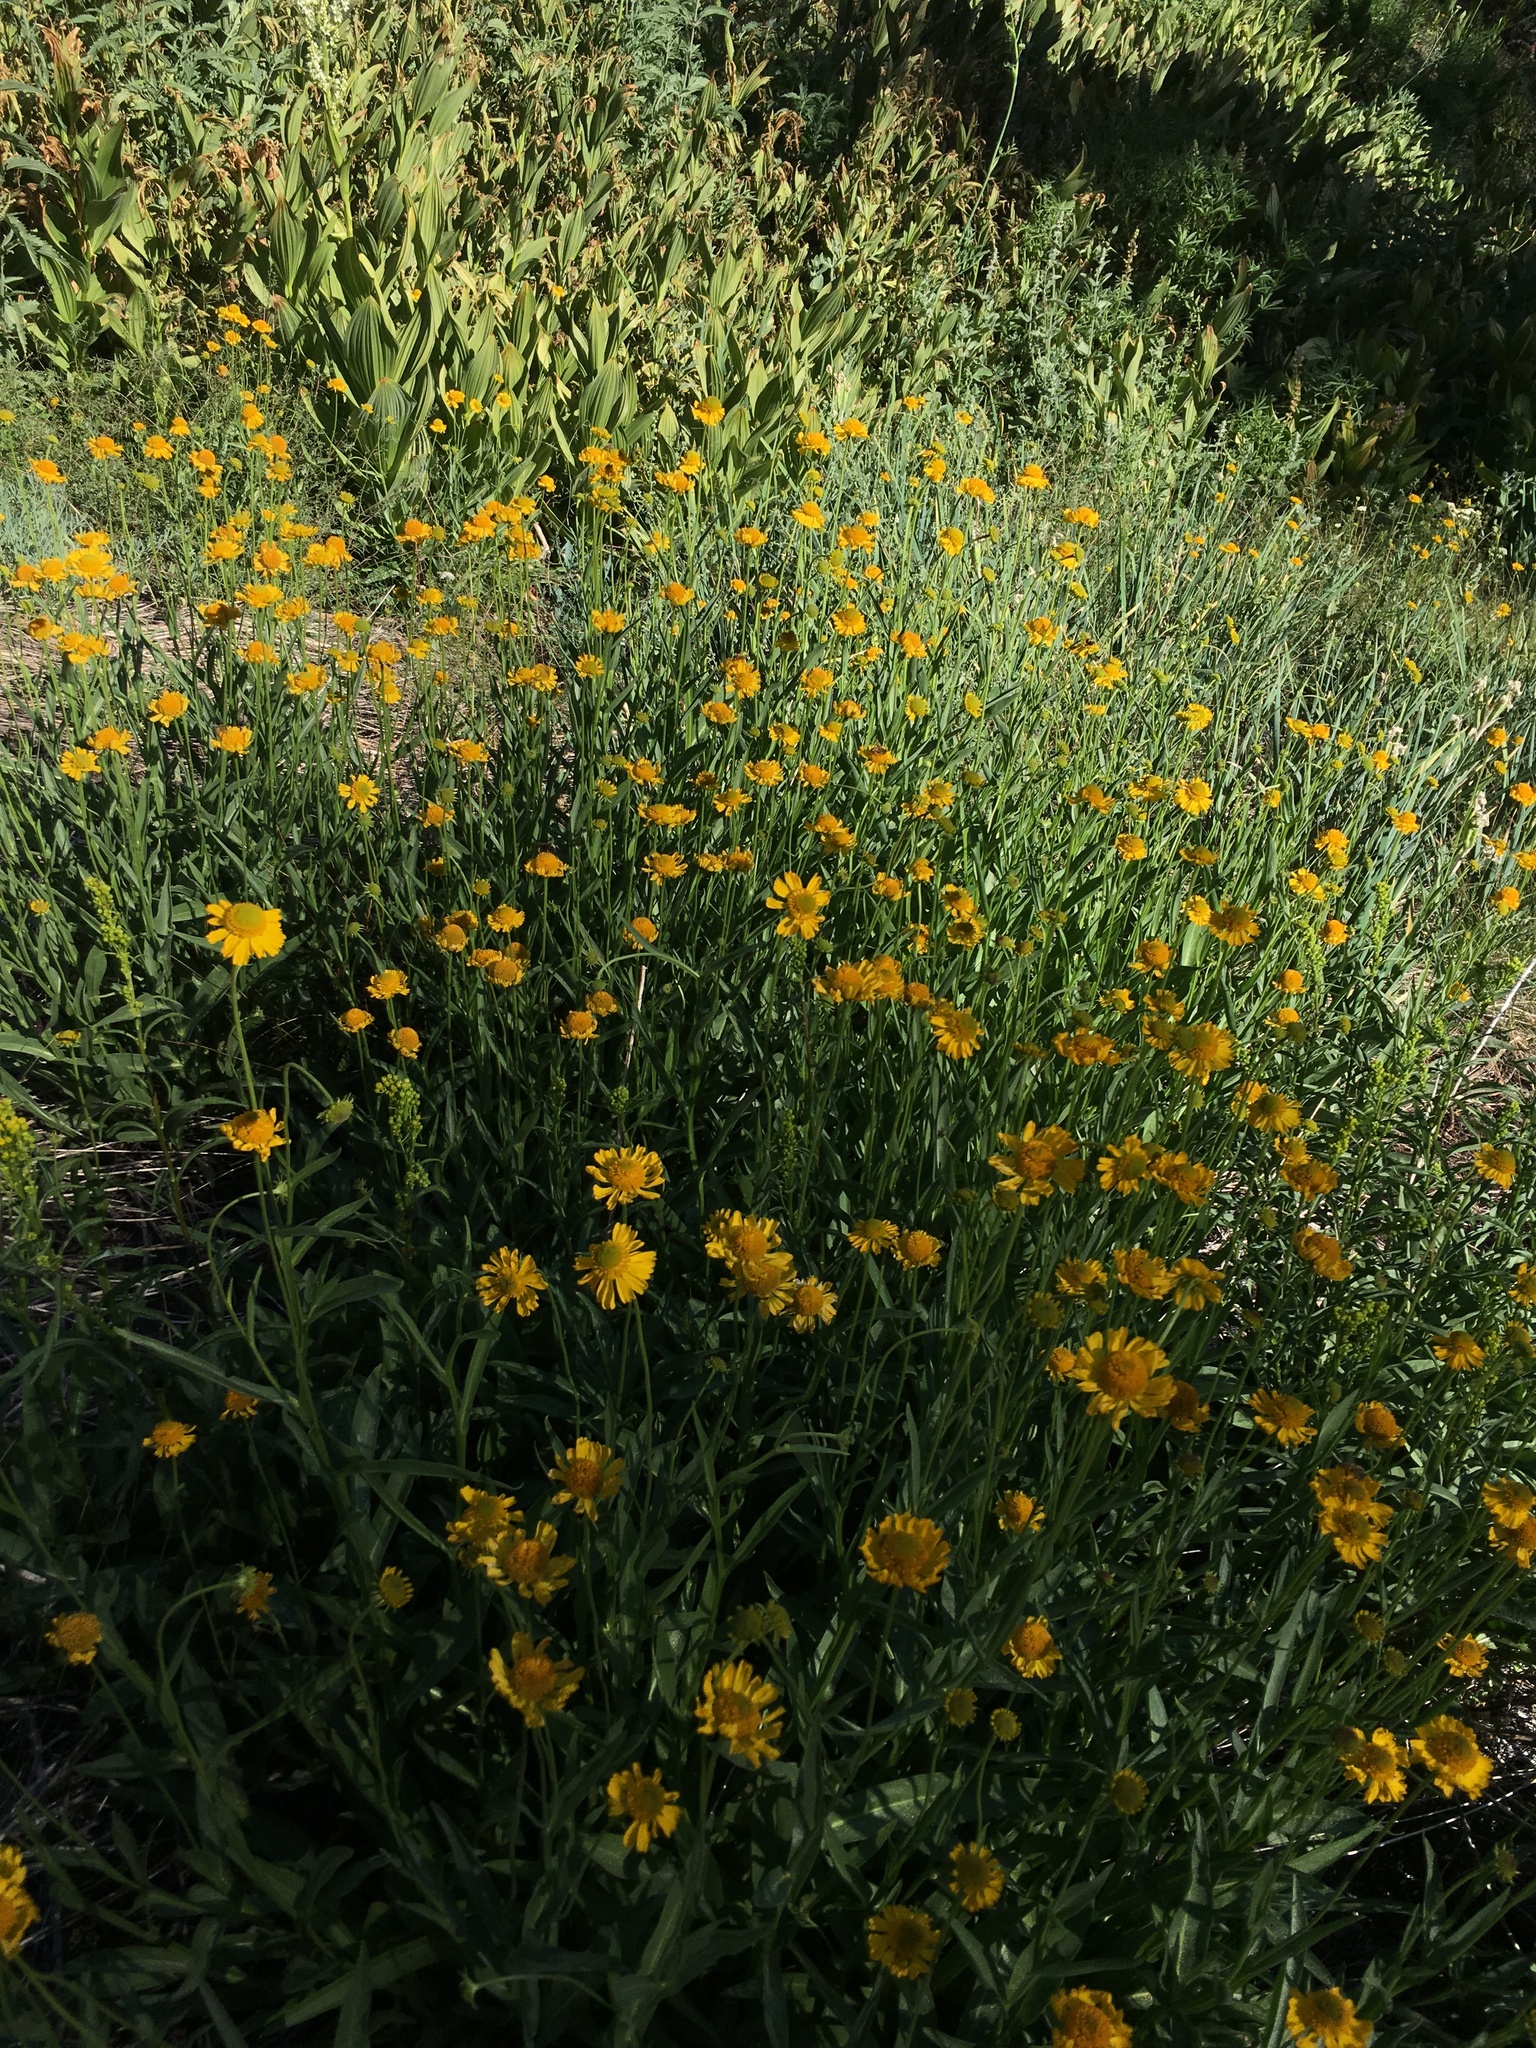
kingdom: Plantae
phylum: Tracheophyta
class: Magnoliopsida
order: Asterales
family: Asteraceae
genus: Helenium
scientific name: Helenium bigelovii
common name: Bigelow's sneezeweed
